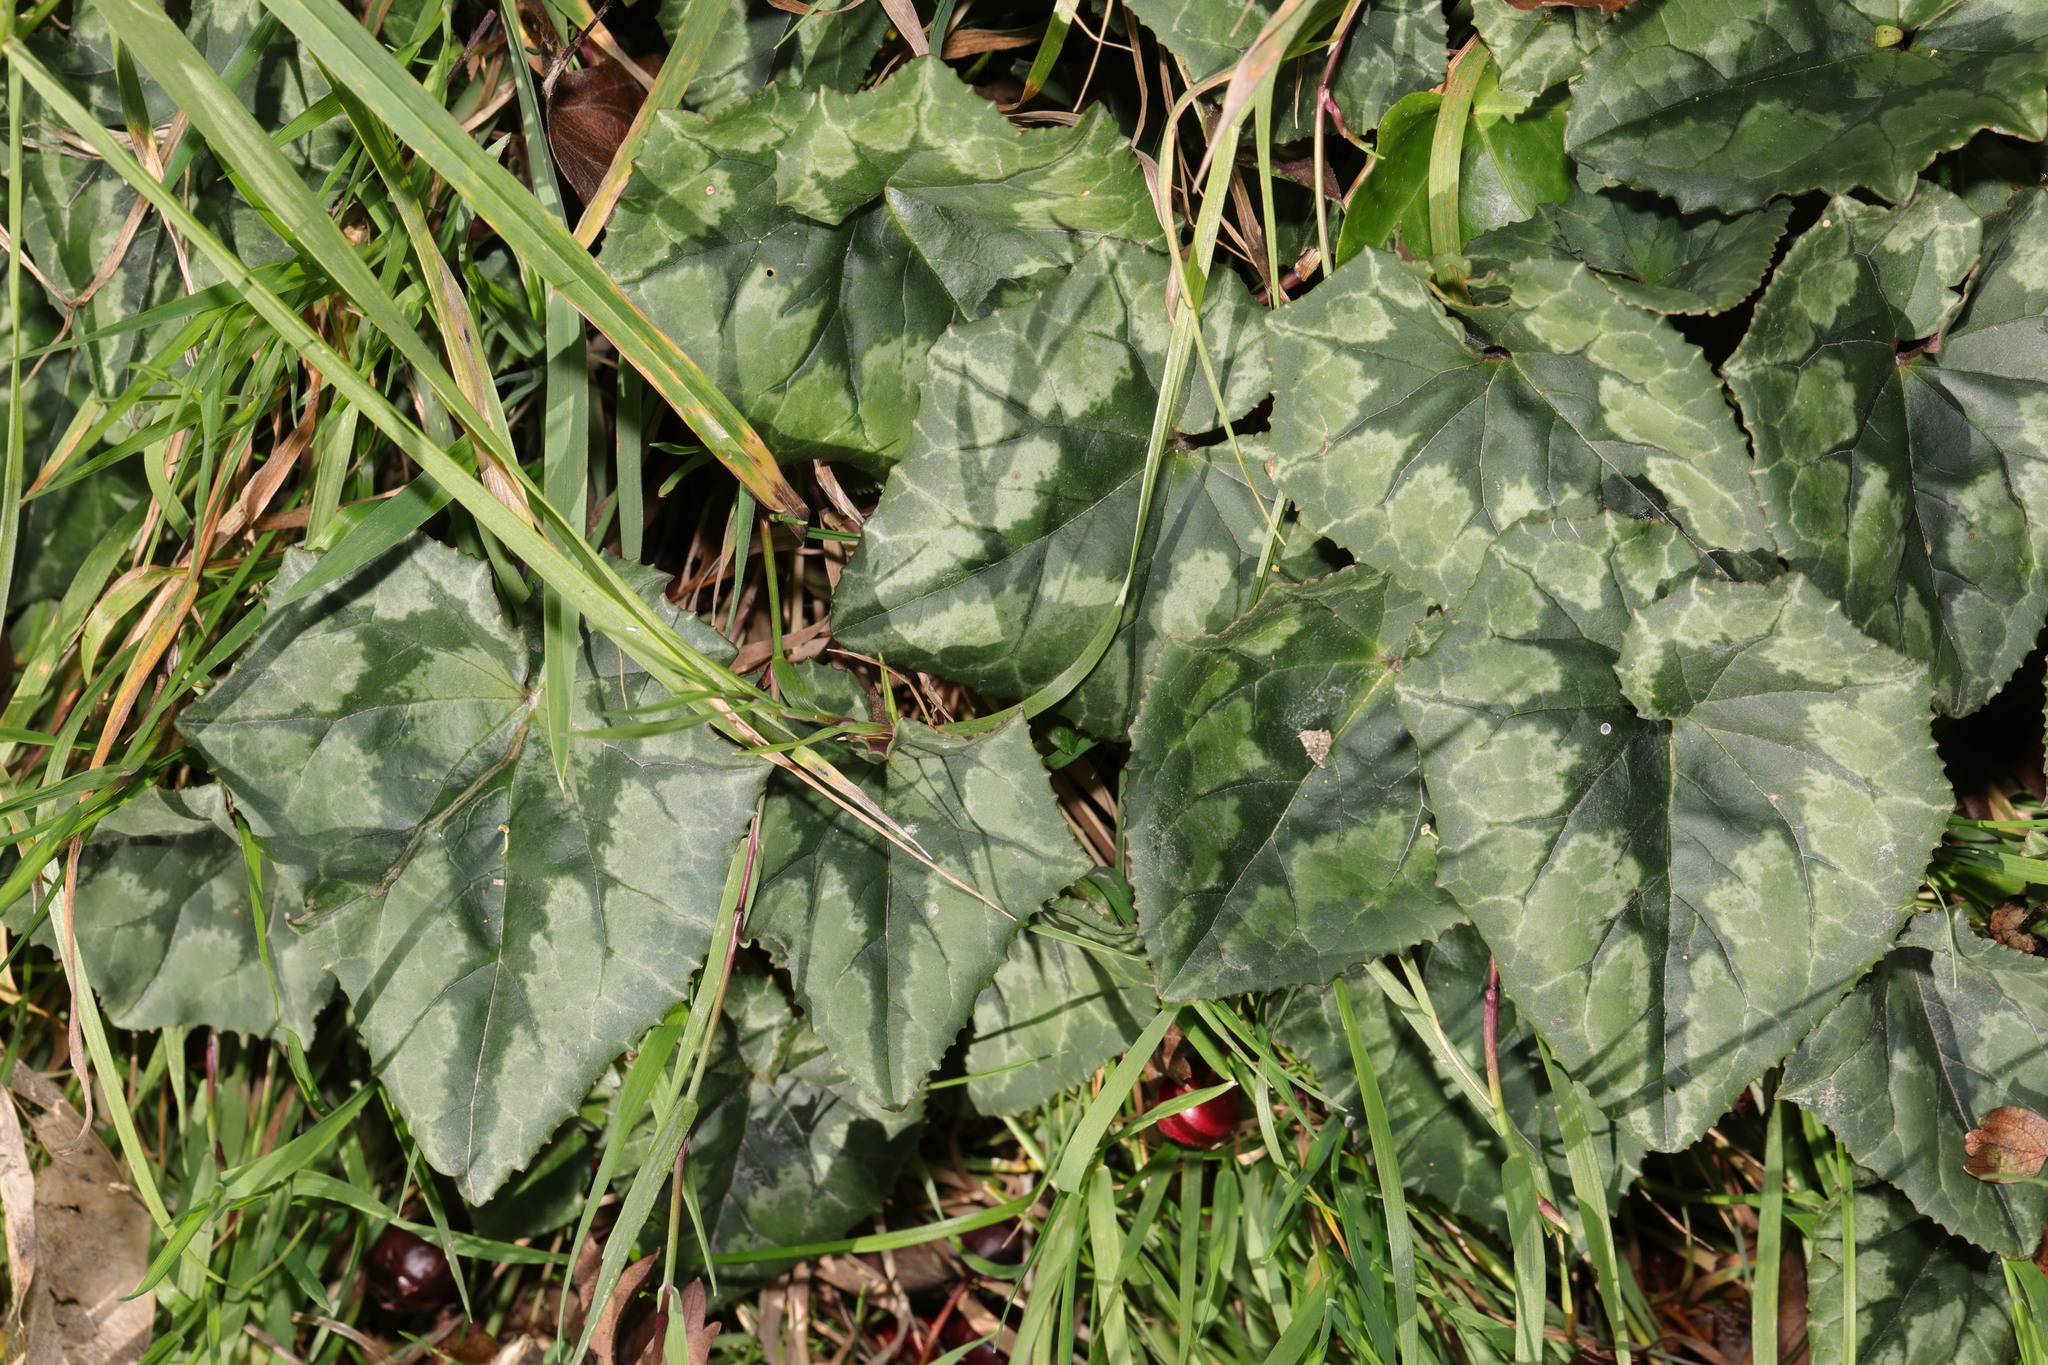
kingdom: Plantae
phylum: Tracheophyta
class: Magnoliopsida
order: Ericales
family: Primulaceae
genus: Cyclamen
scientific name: Cyclamen hederifolium
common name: Sowbread
